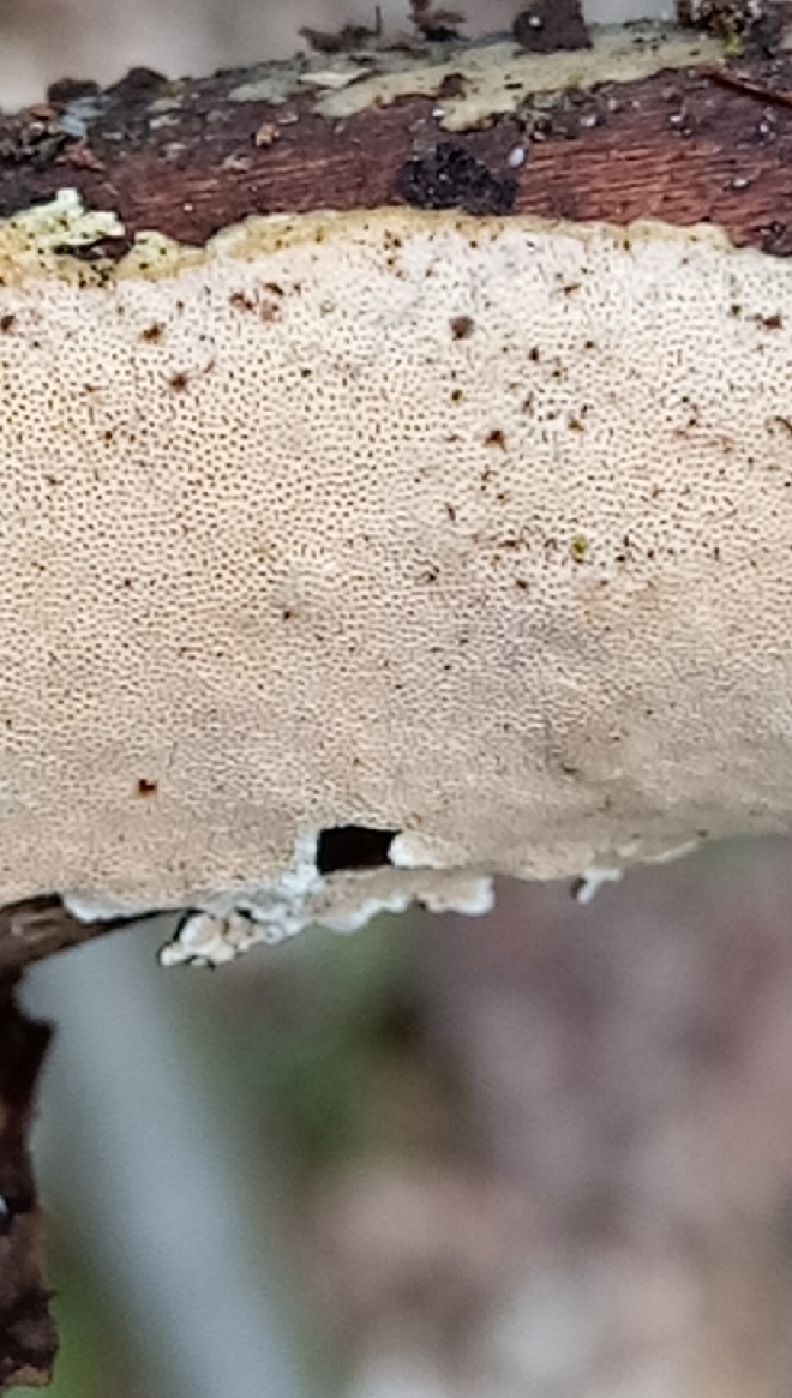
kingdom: Fungi
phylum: Basidiomycota
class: Agaricomycetes
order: Polyporales
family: Steccherinaceae
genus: Junghuhnia
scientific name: Junghuhnia nitida
